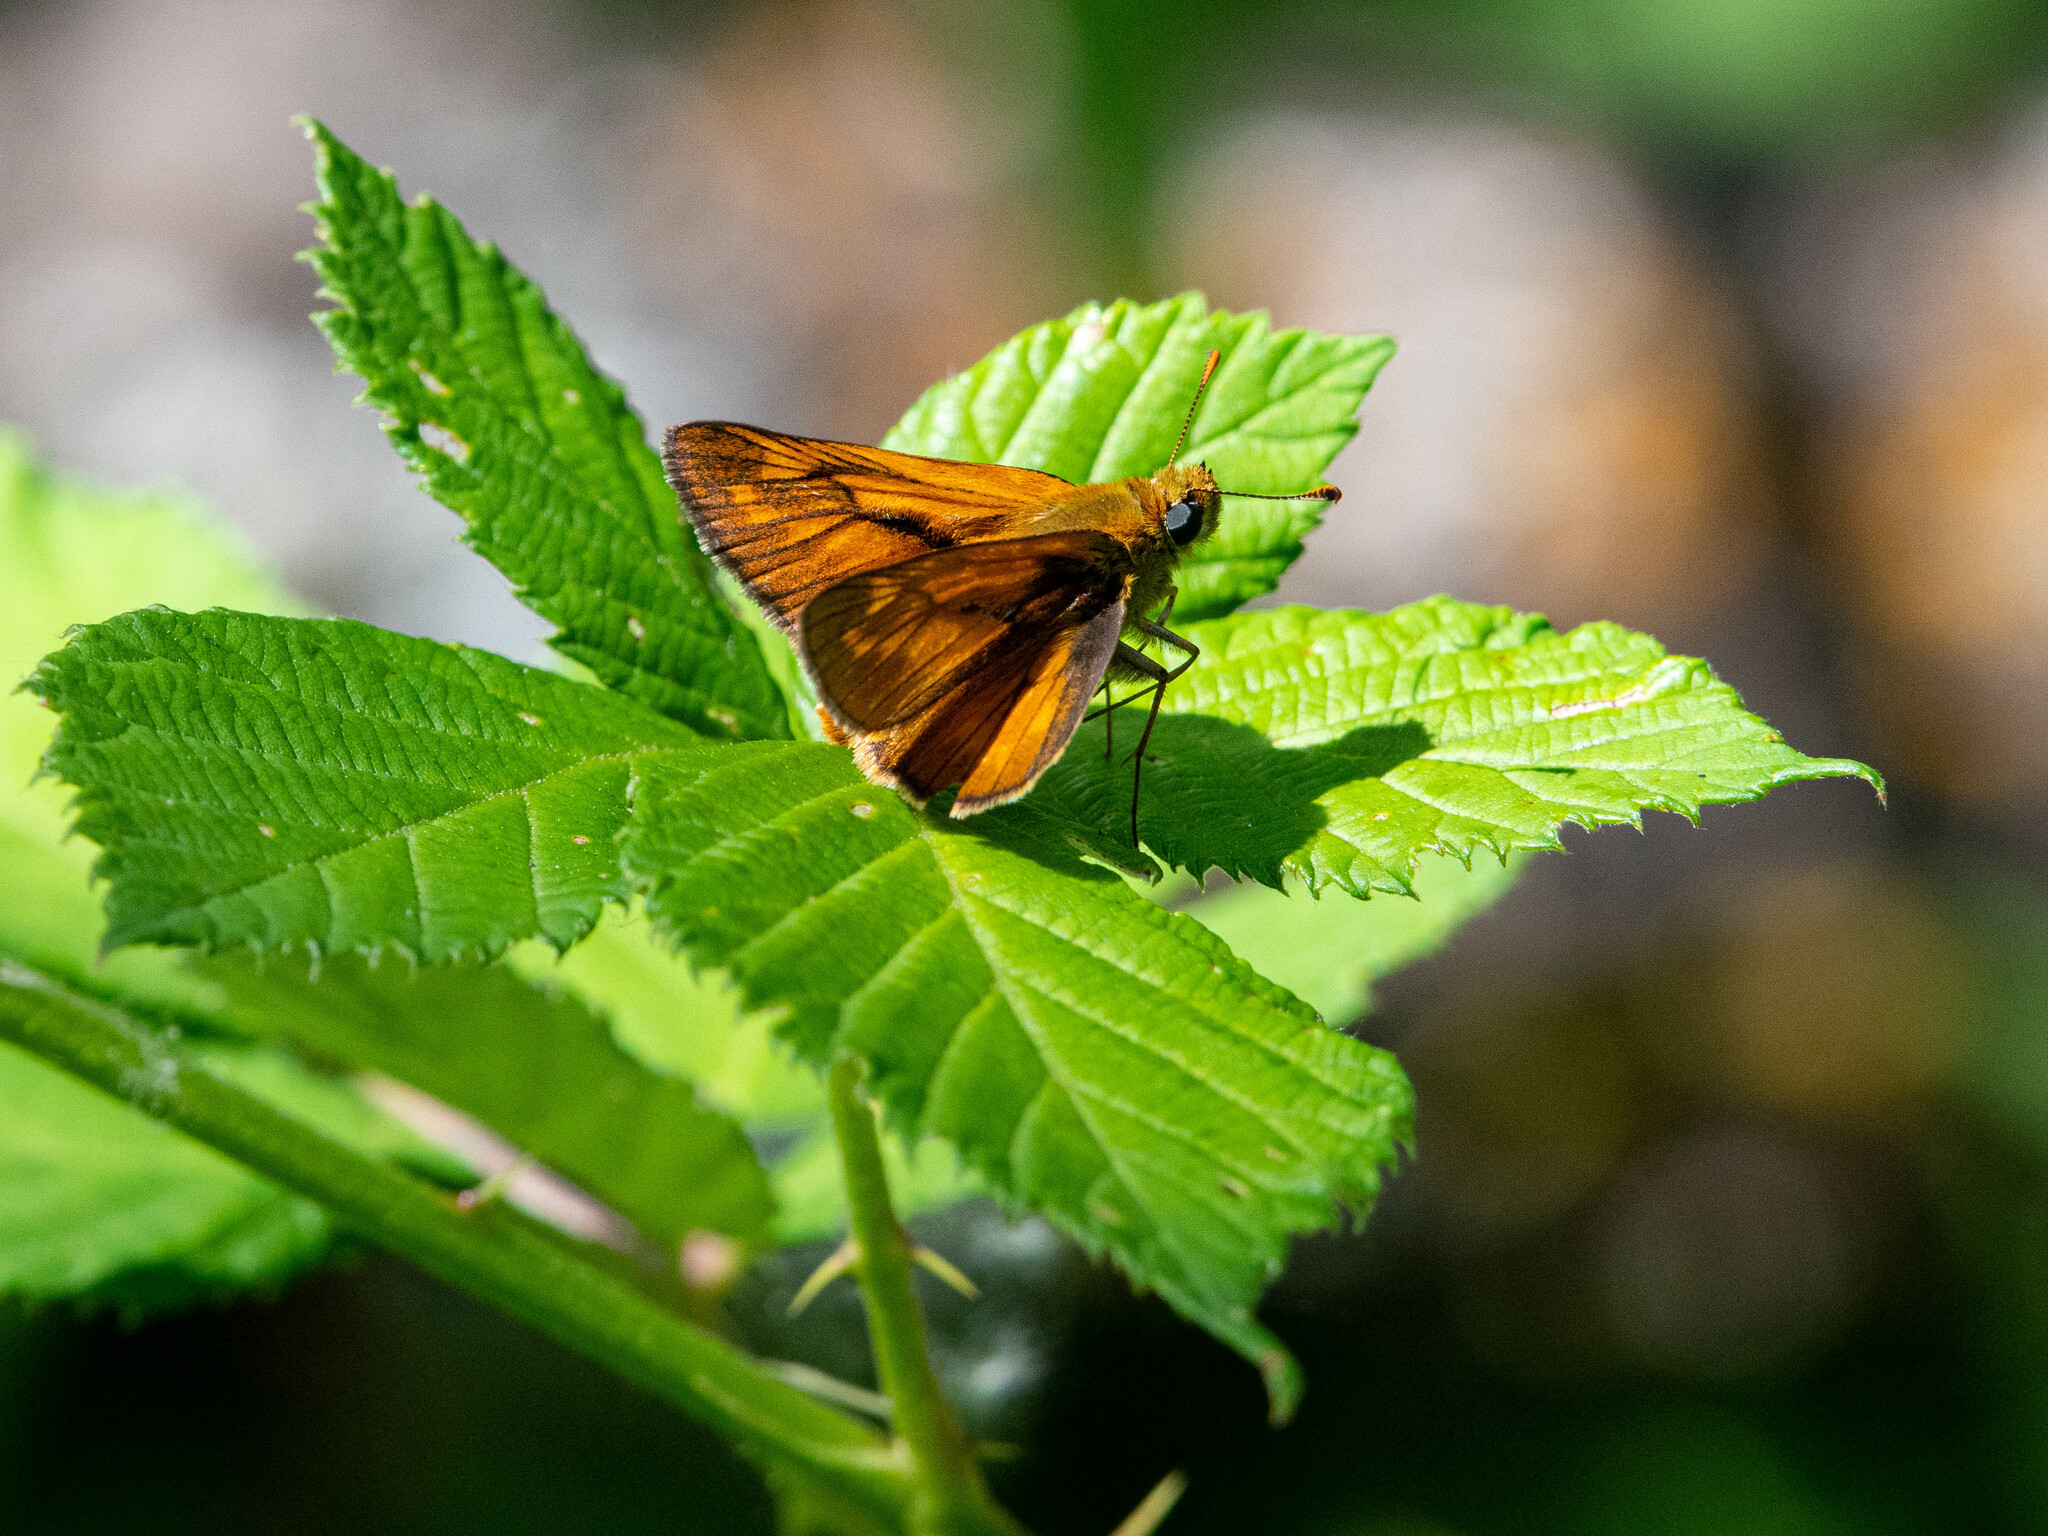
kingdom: Animalia
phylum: Arthropoda
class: Insecta
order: Lepidoptera
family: Hesperiidae
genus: Ochlodes
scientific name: Ochlodes venata
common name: Large skipper
